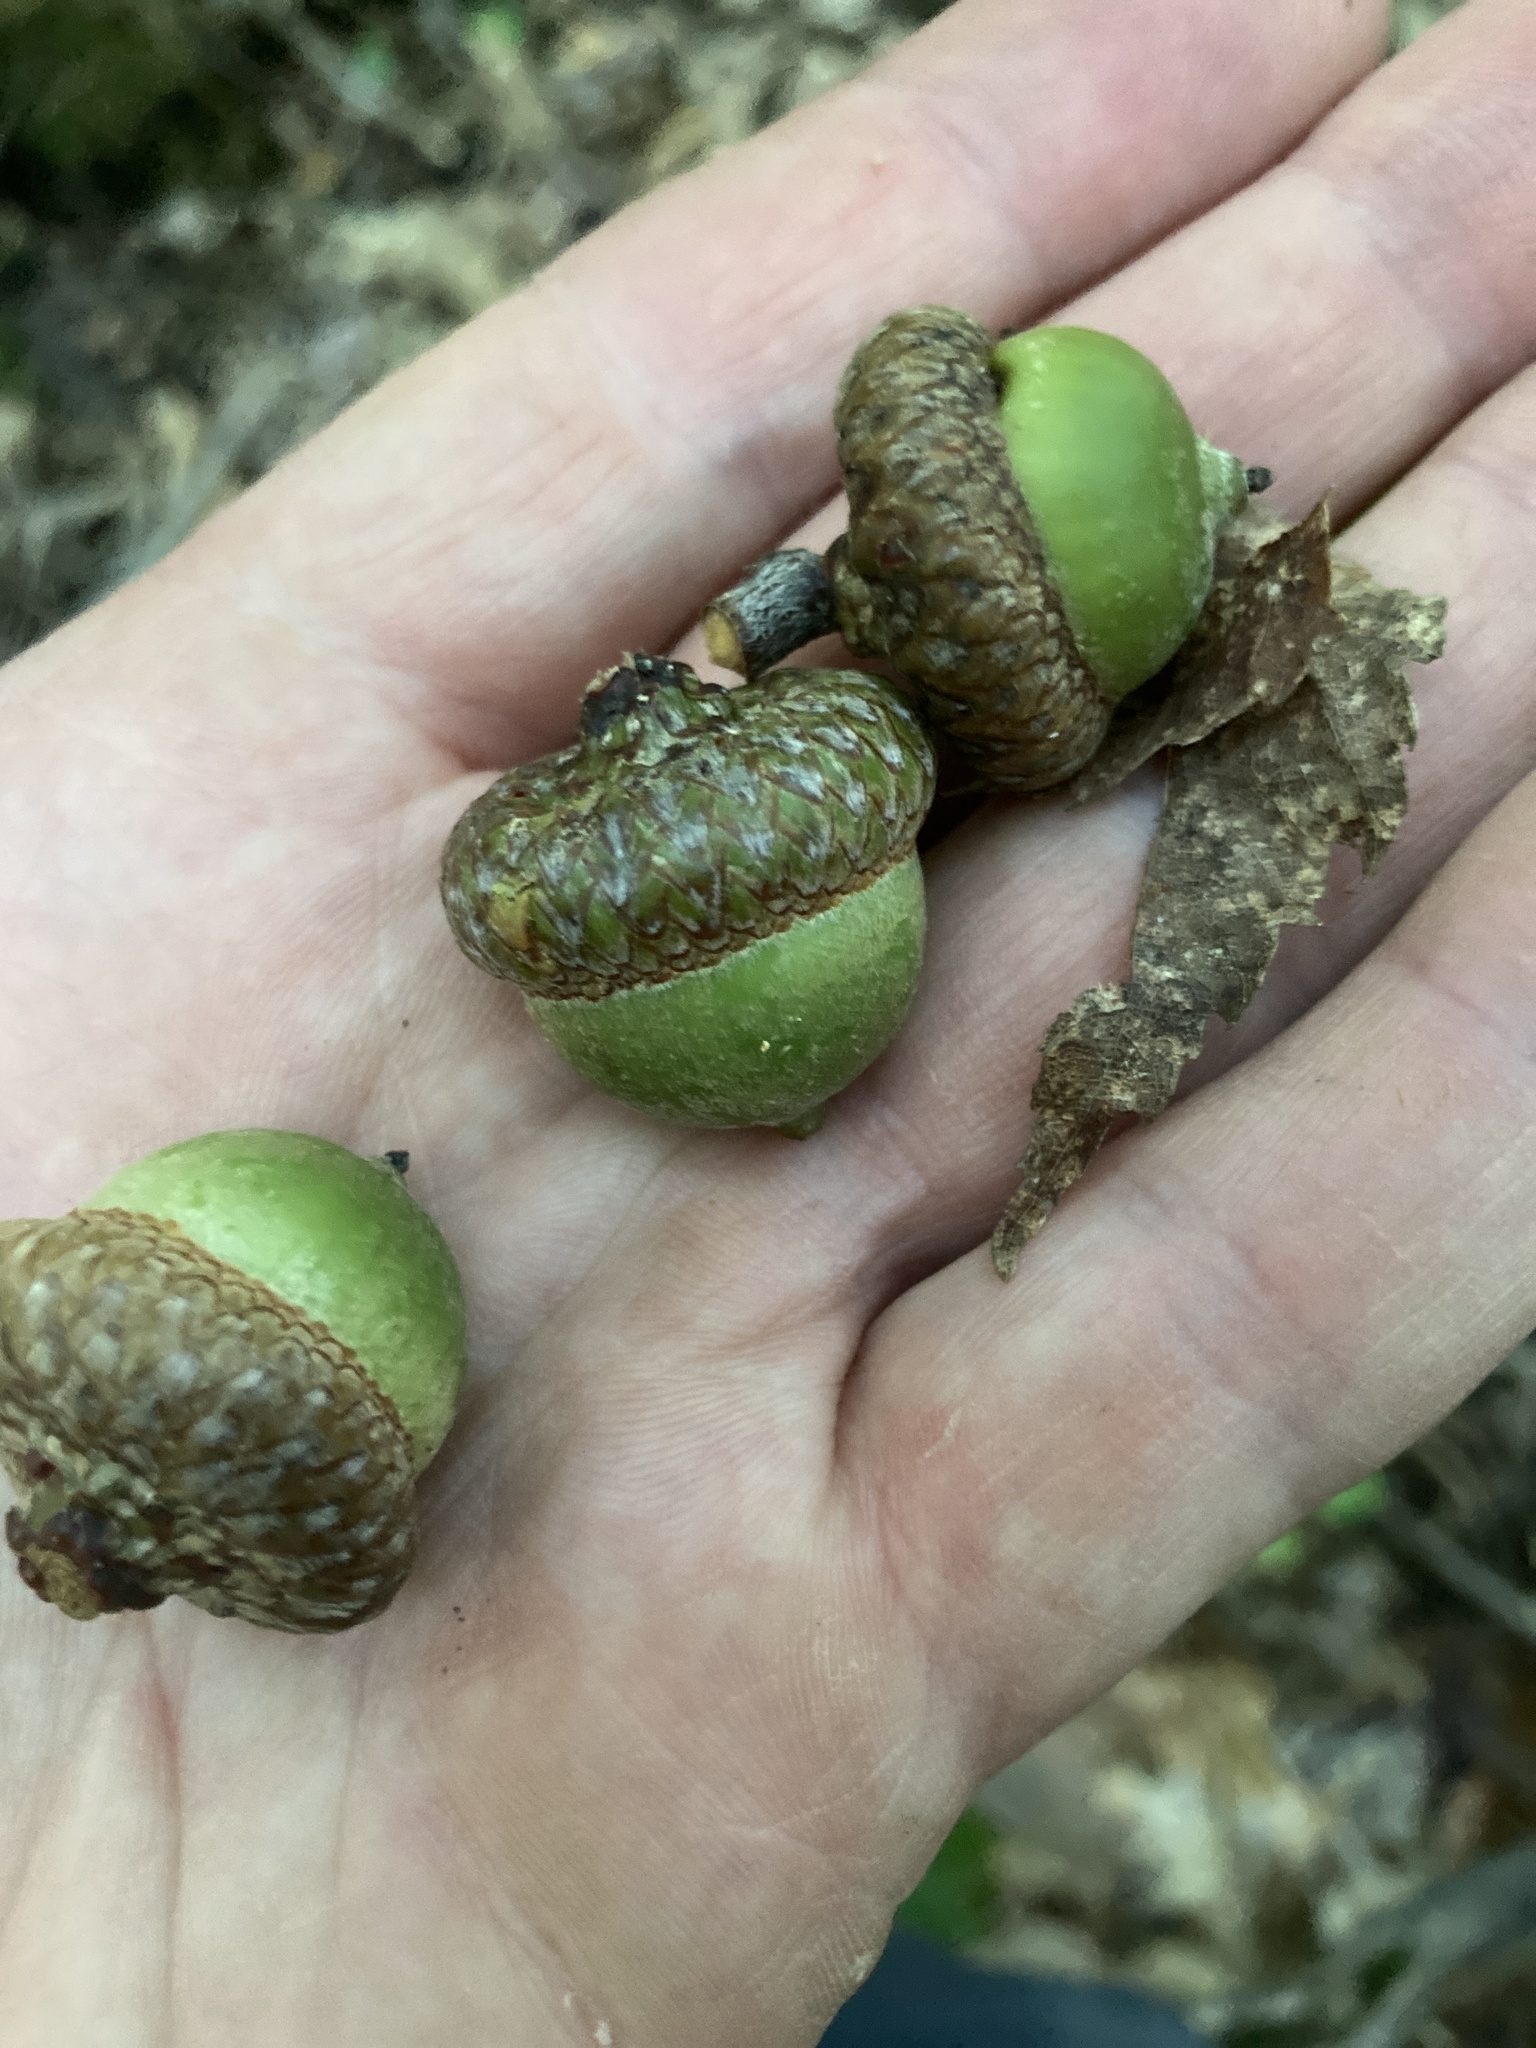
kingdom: Plantae
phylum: Tracheophyta
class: Magnoliopsida
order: Fagales
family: Fagaceae
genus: Quercus
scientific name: Quercus rubra
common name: Red oak
